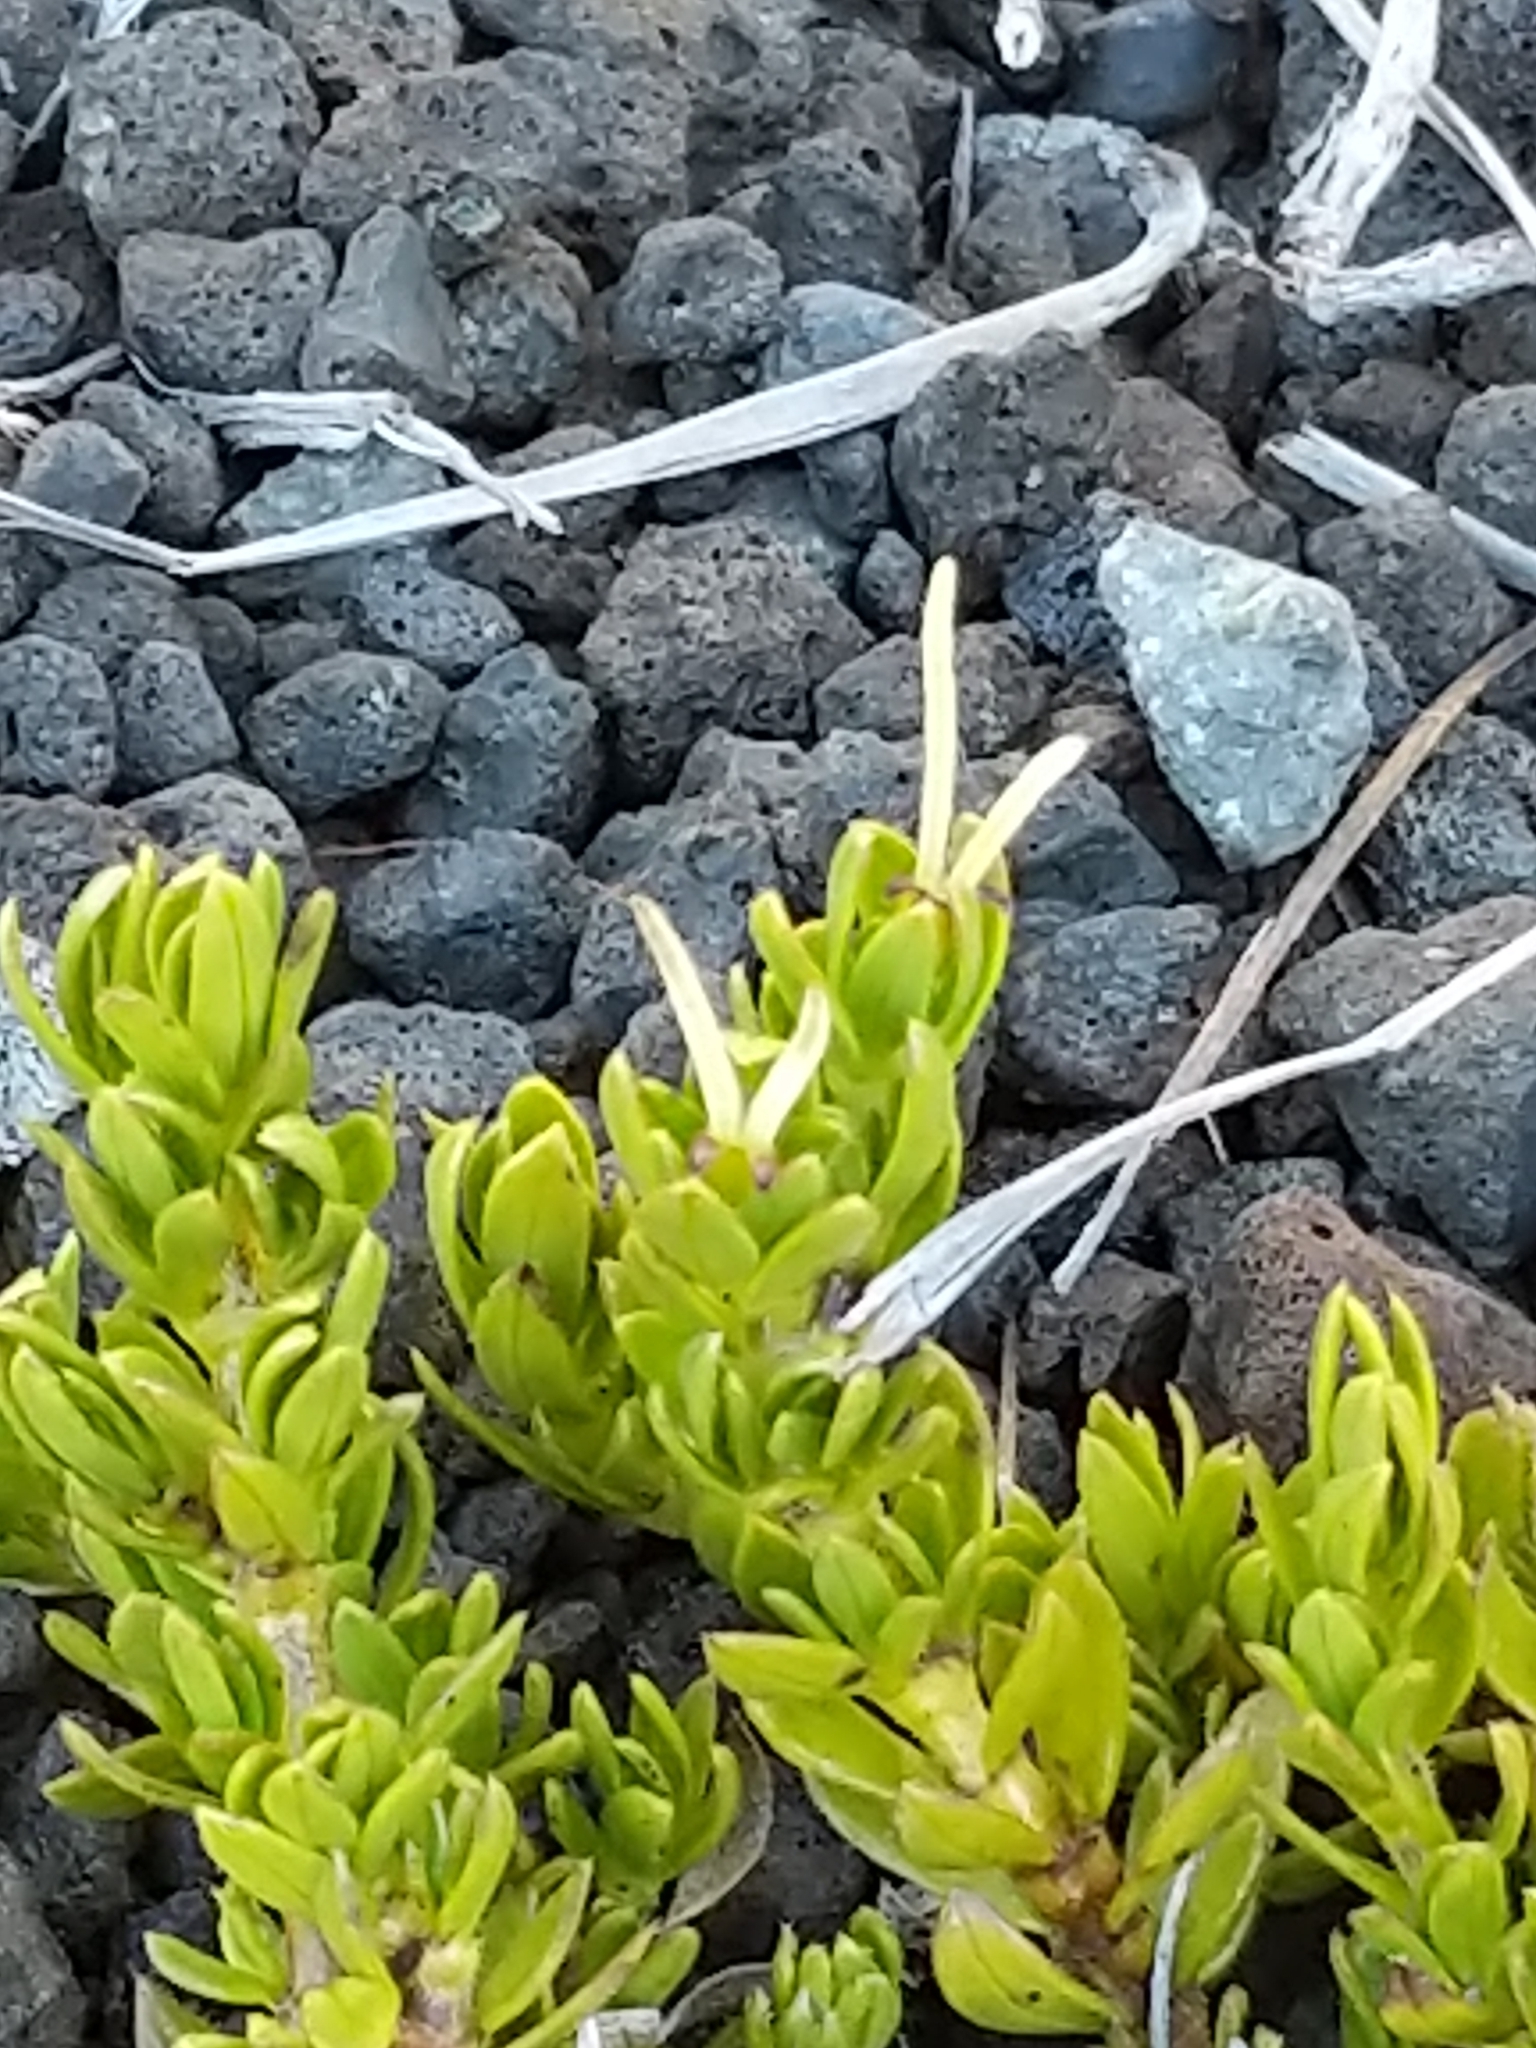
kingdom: Plantae
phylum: Tracheophyta
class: Magnoliopsida
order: Gentianales
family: Rubiaceae
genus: Coprosma
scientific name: Coprosma ernodeoides
